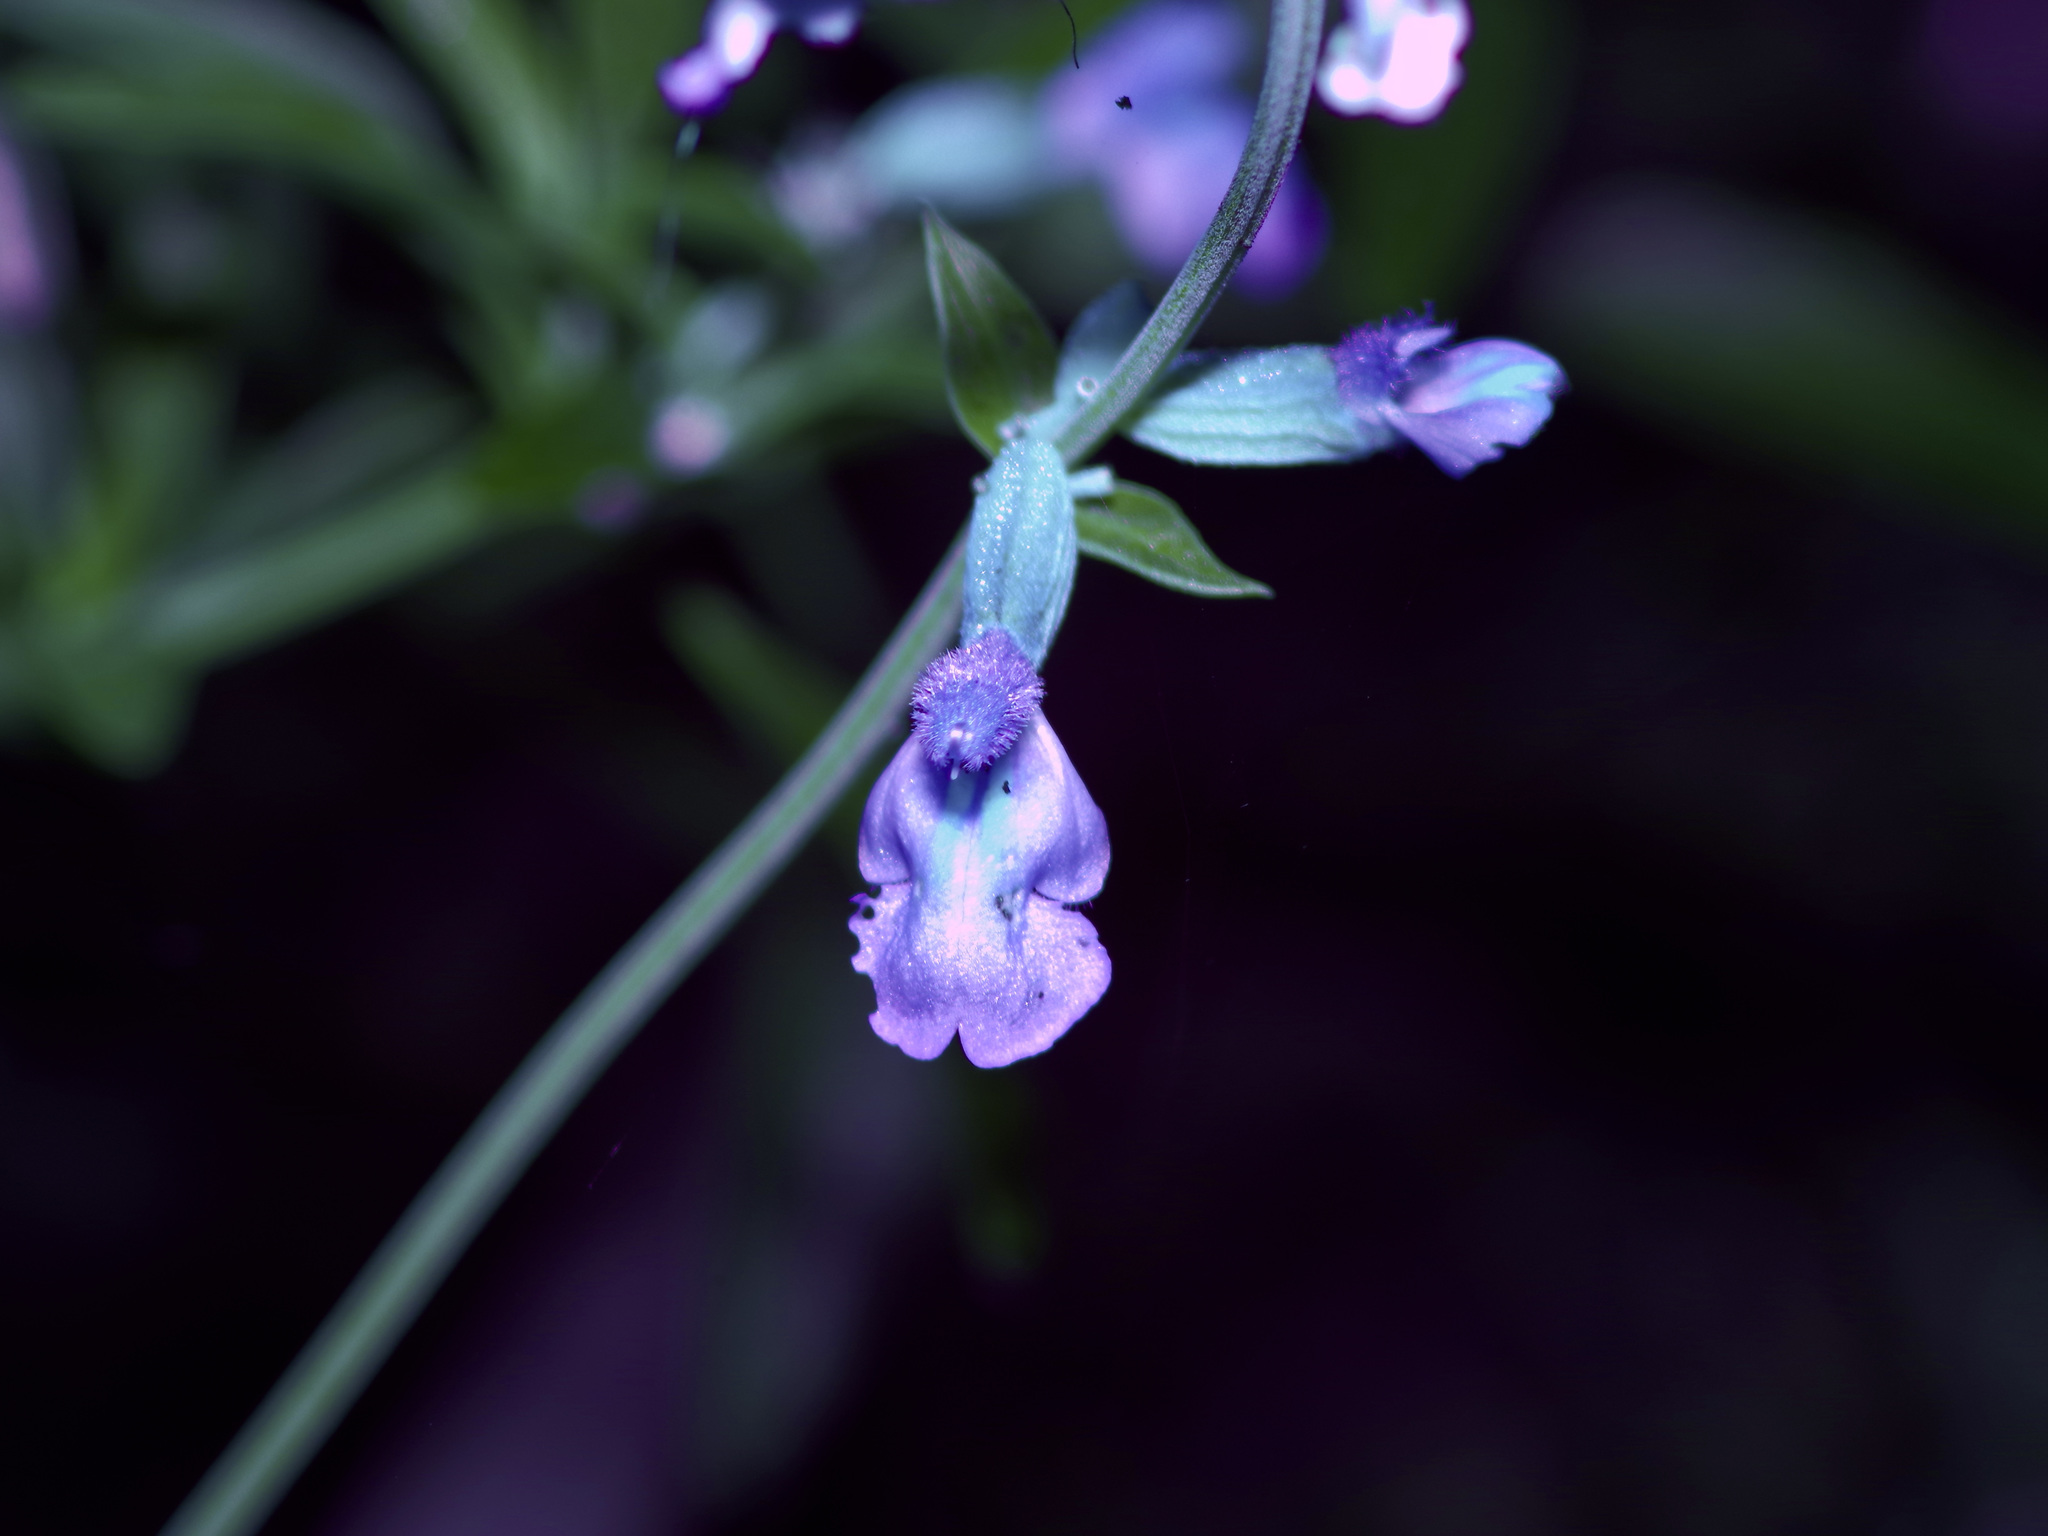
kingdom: Plantae
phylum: Tracheophyta
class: Magnoliopsida
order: Lamiales
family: Lamiaceae
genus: Salvia
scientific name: Salvia farinacea
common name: Mealy sage
